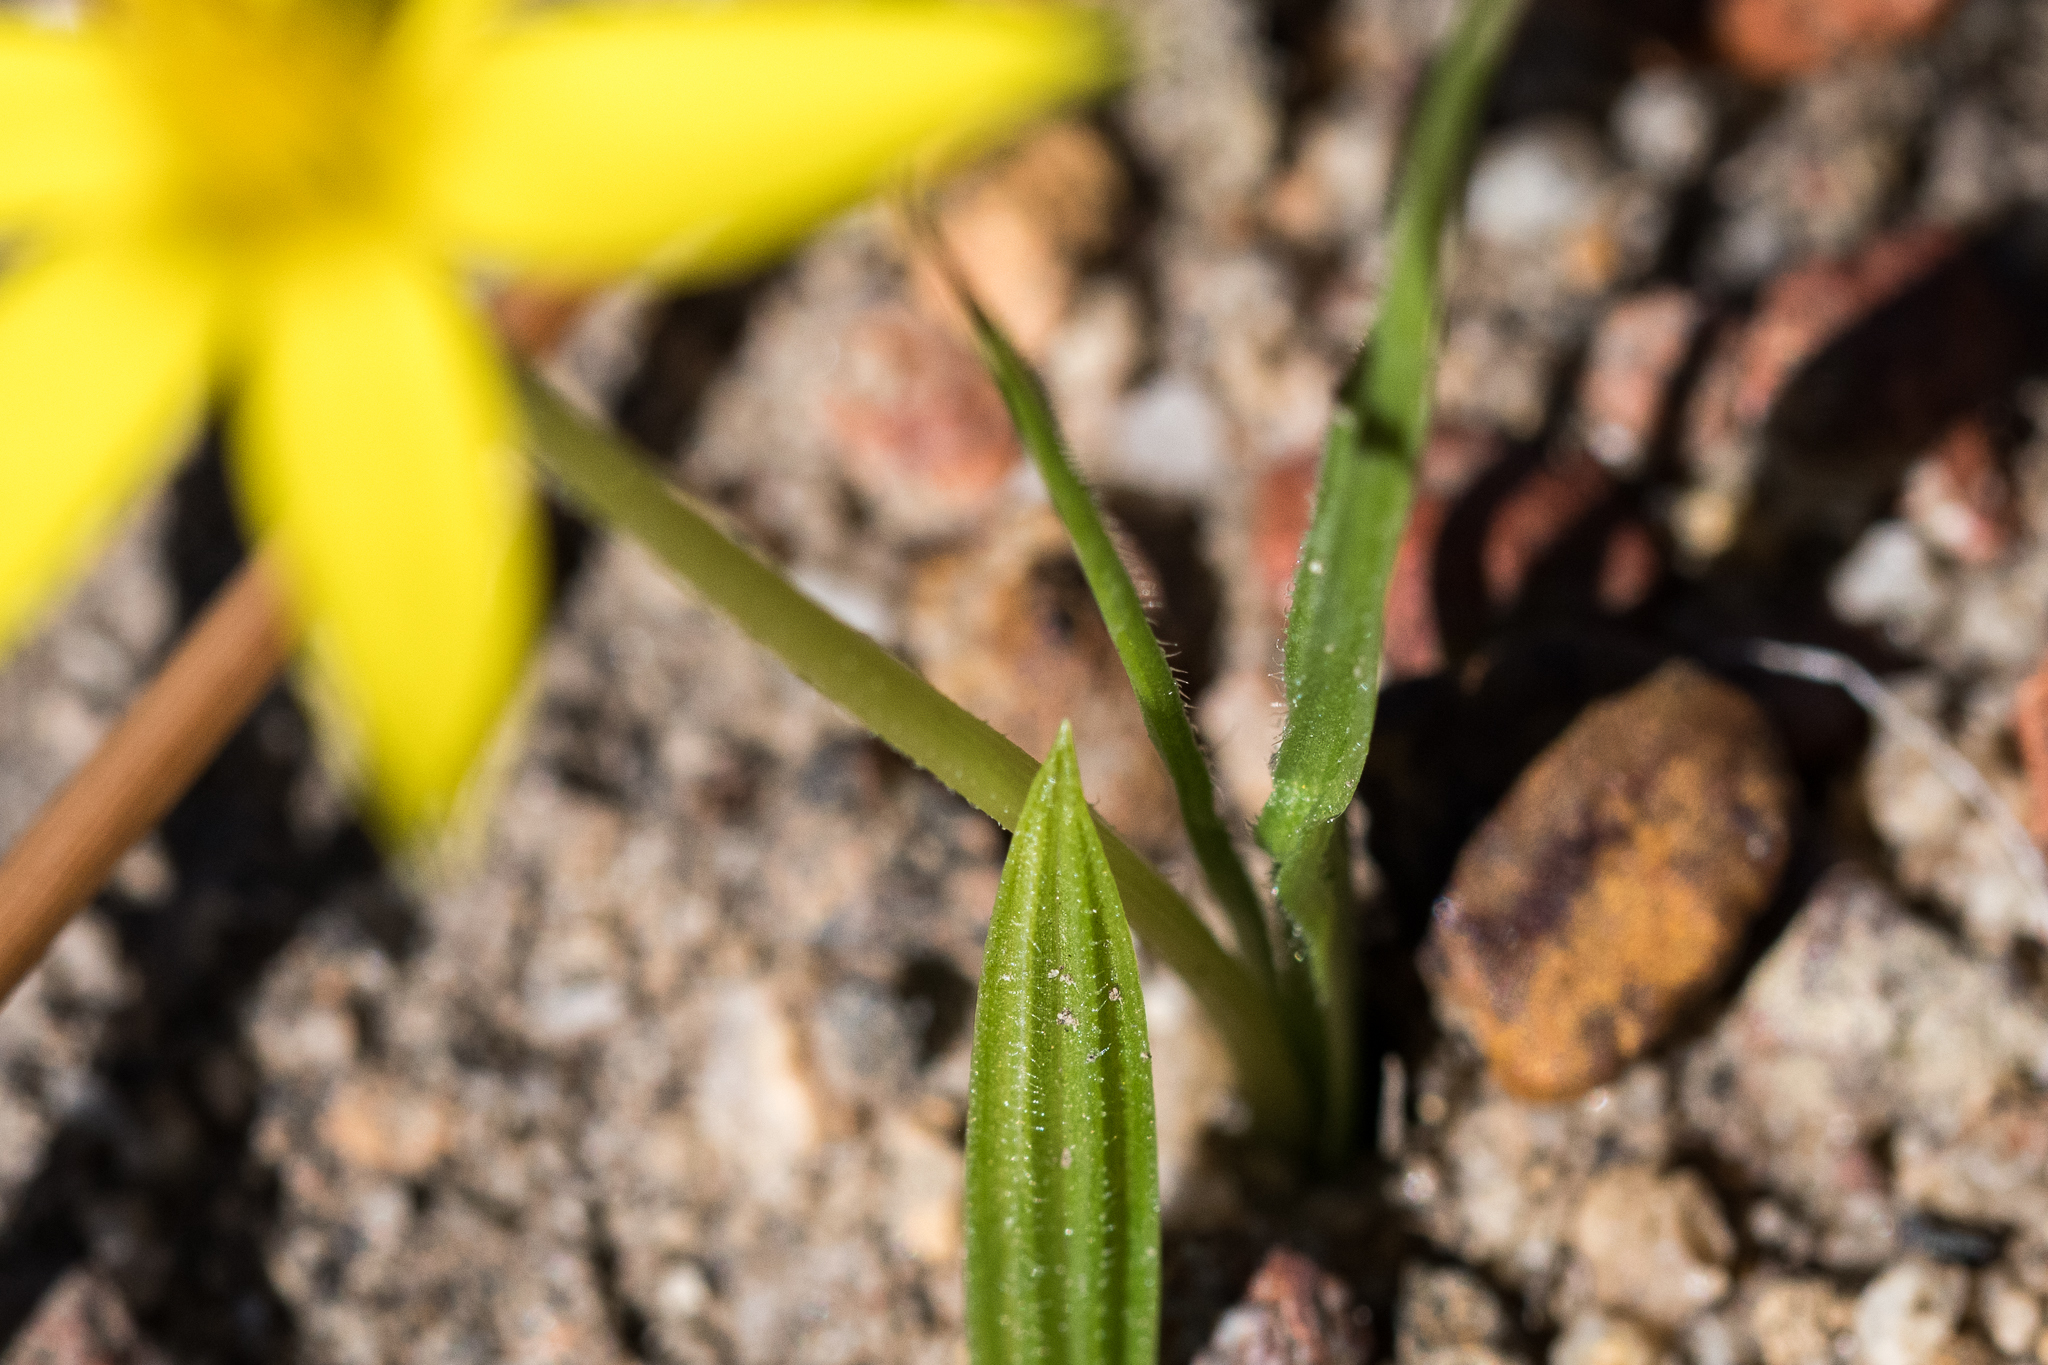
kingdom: Plantae
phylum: Tracheophyta
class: Liliopsida
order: Asparagales
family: Hypoxidaceae
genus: Empodium
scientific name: Empodium plicatum
